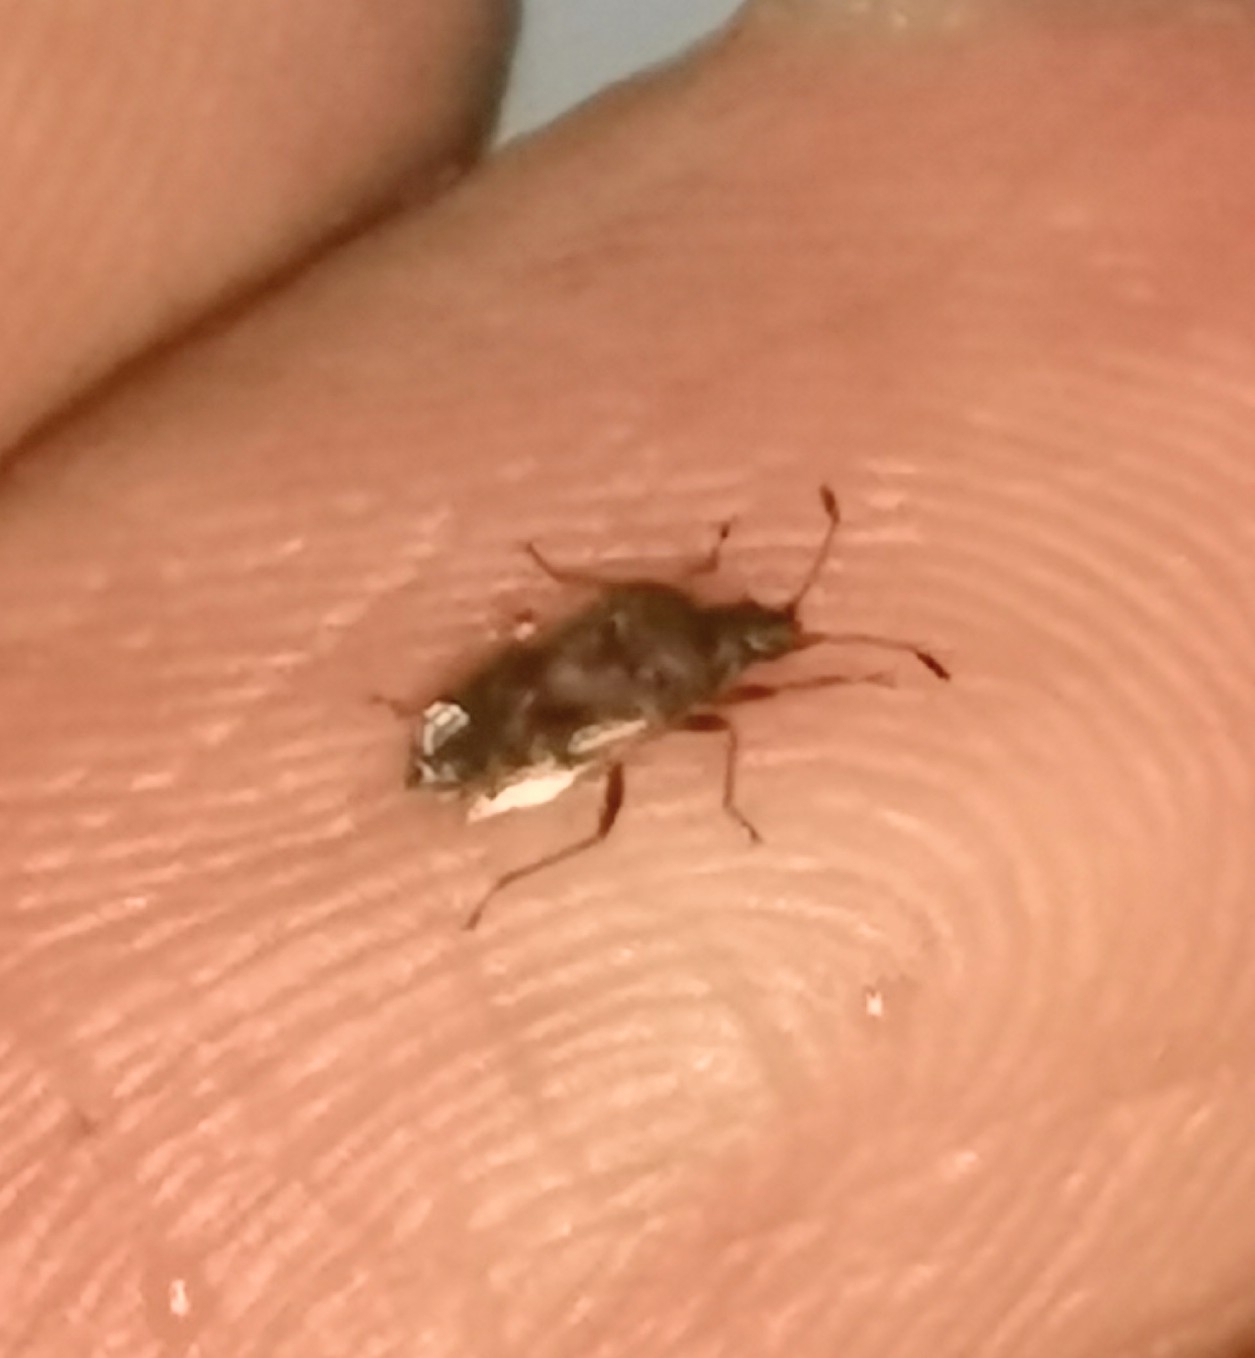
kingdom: Animalia
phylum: Arthropoda
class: Insecta
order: Hemiptera
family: Lygaeidae
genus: Kleidocerys
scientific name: Kleidocerys resedae
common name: Birch catkin bug
